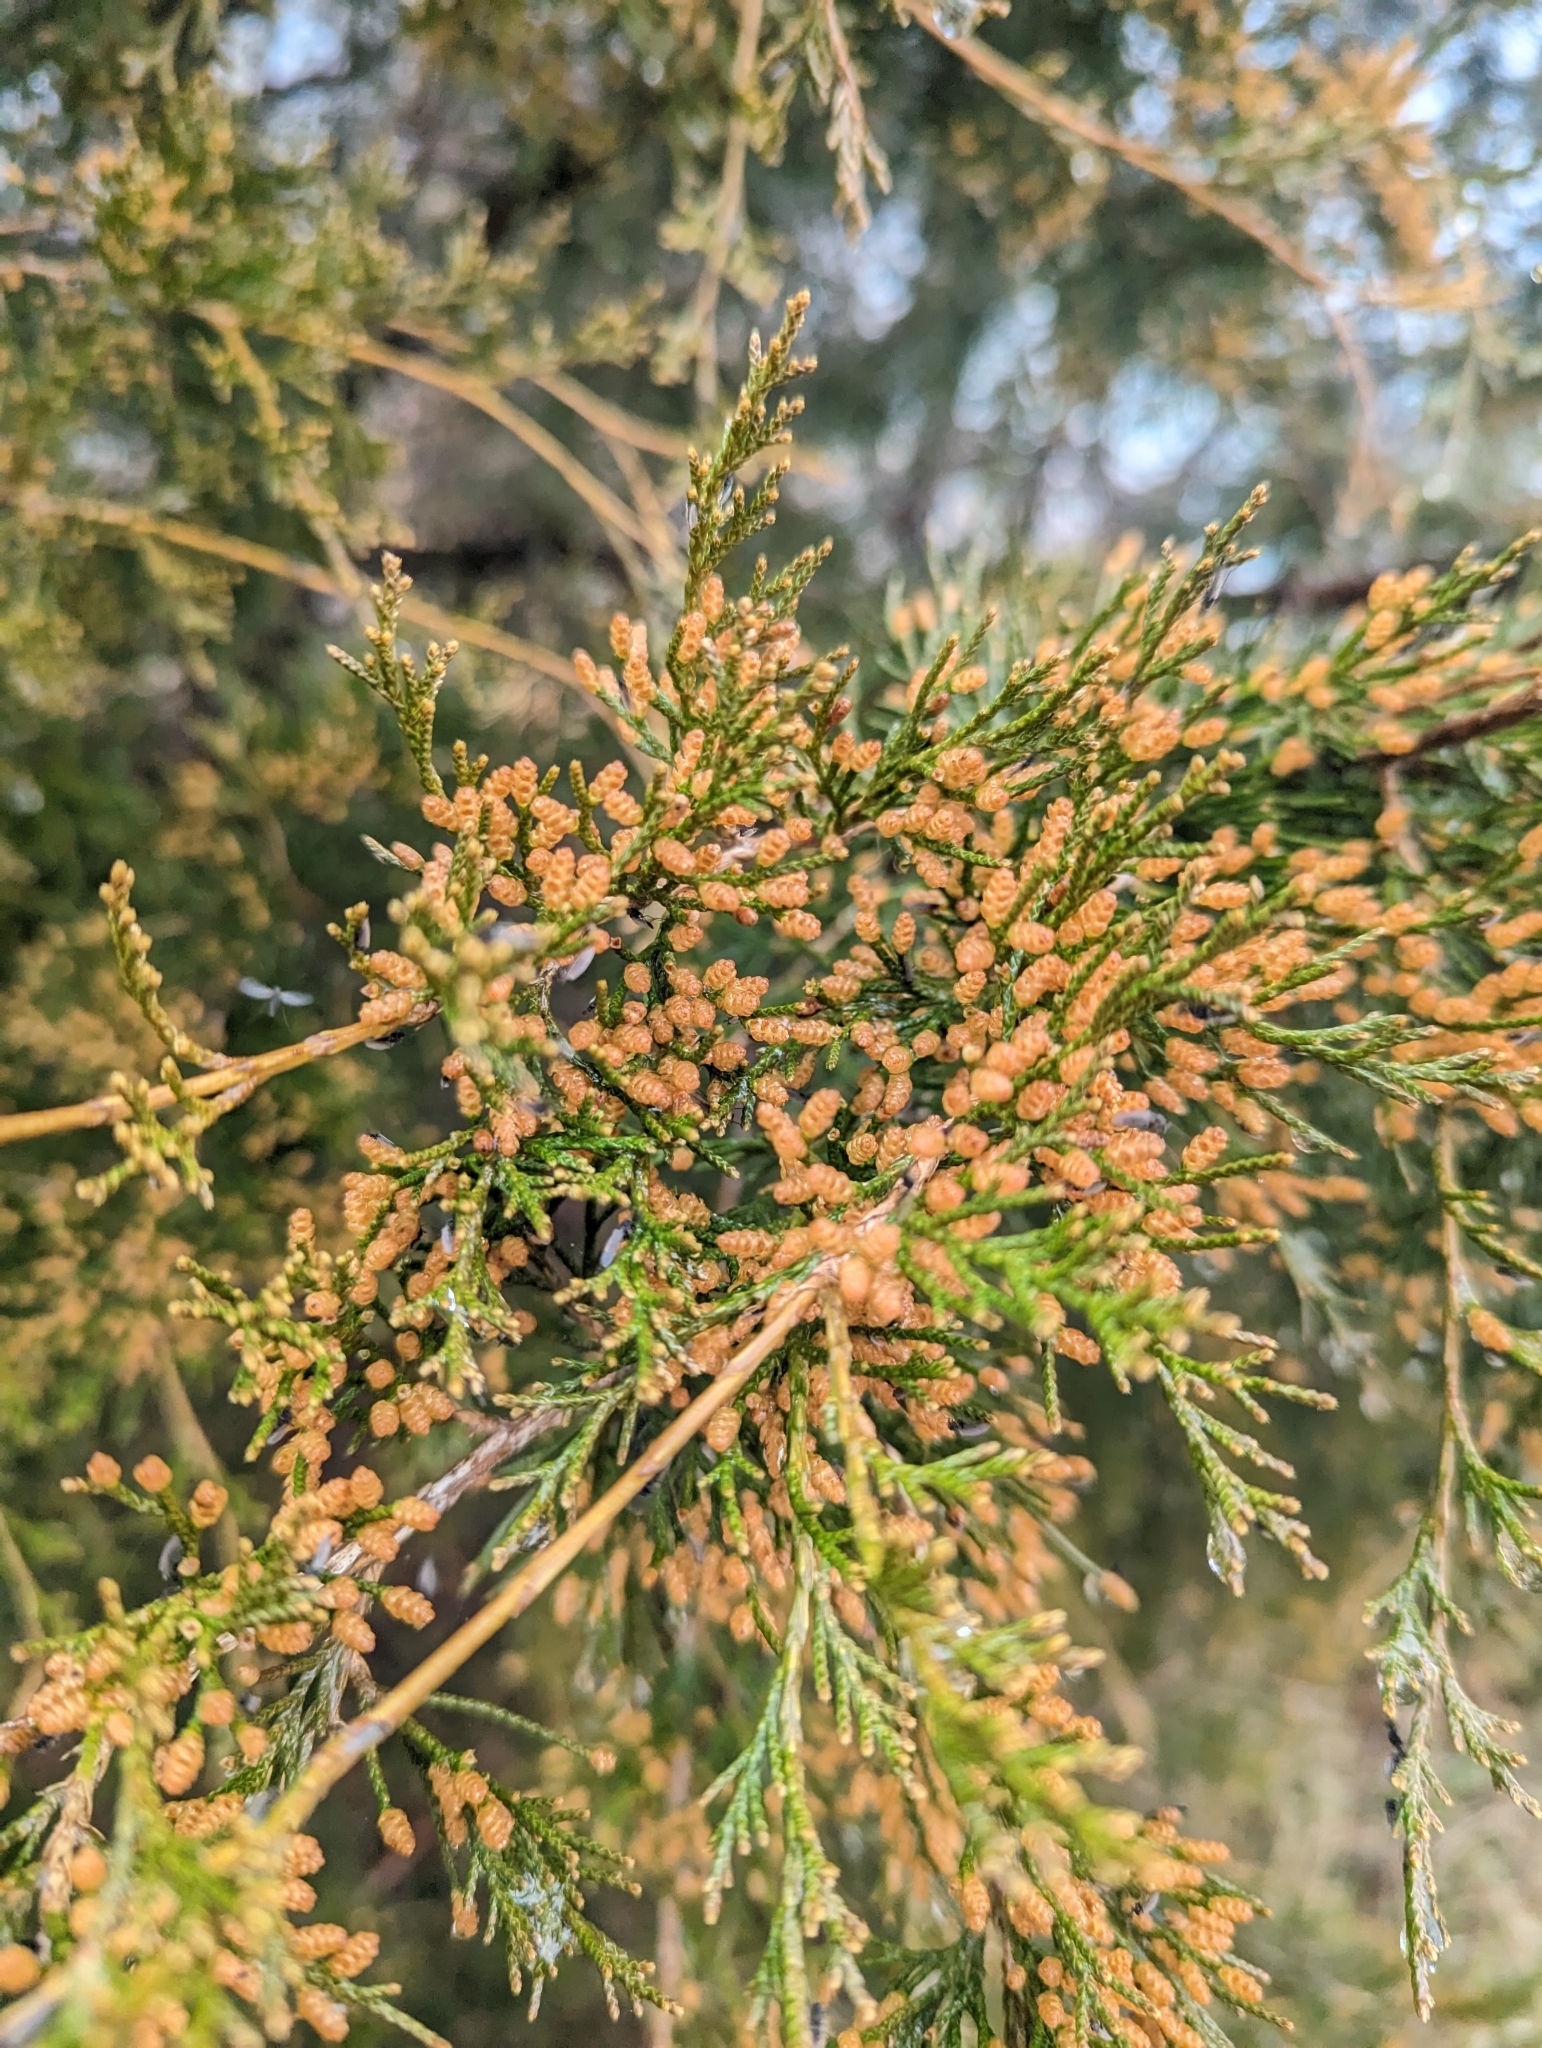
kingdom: Plantae
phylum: Tracheophyta
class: Pinopsida
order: Pinales
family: Cupressaceae
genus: Juniperus
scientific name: Juniperus virginiana
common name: Red juniper
